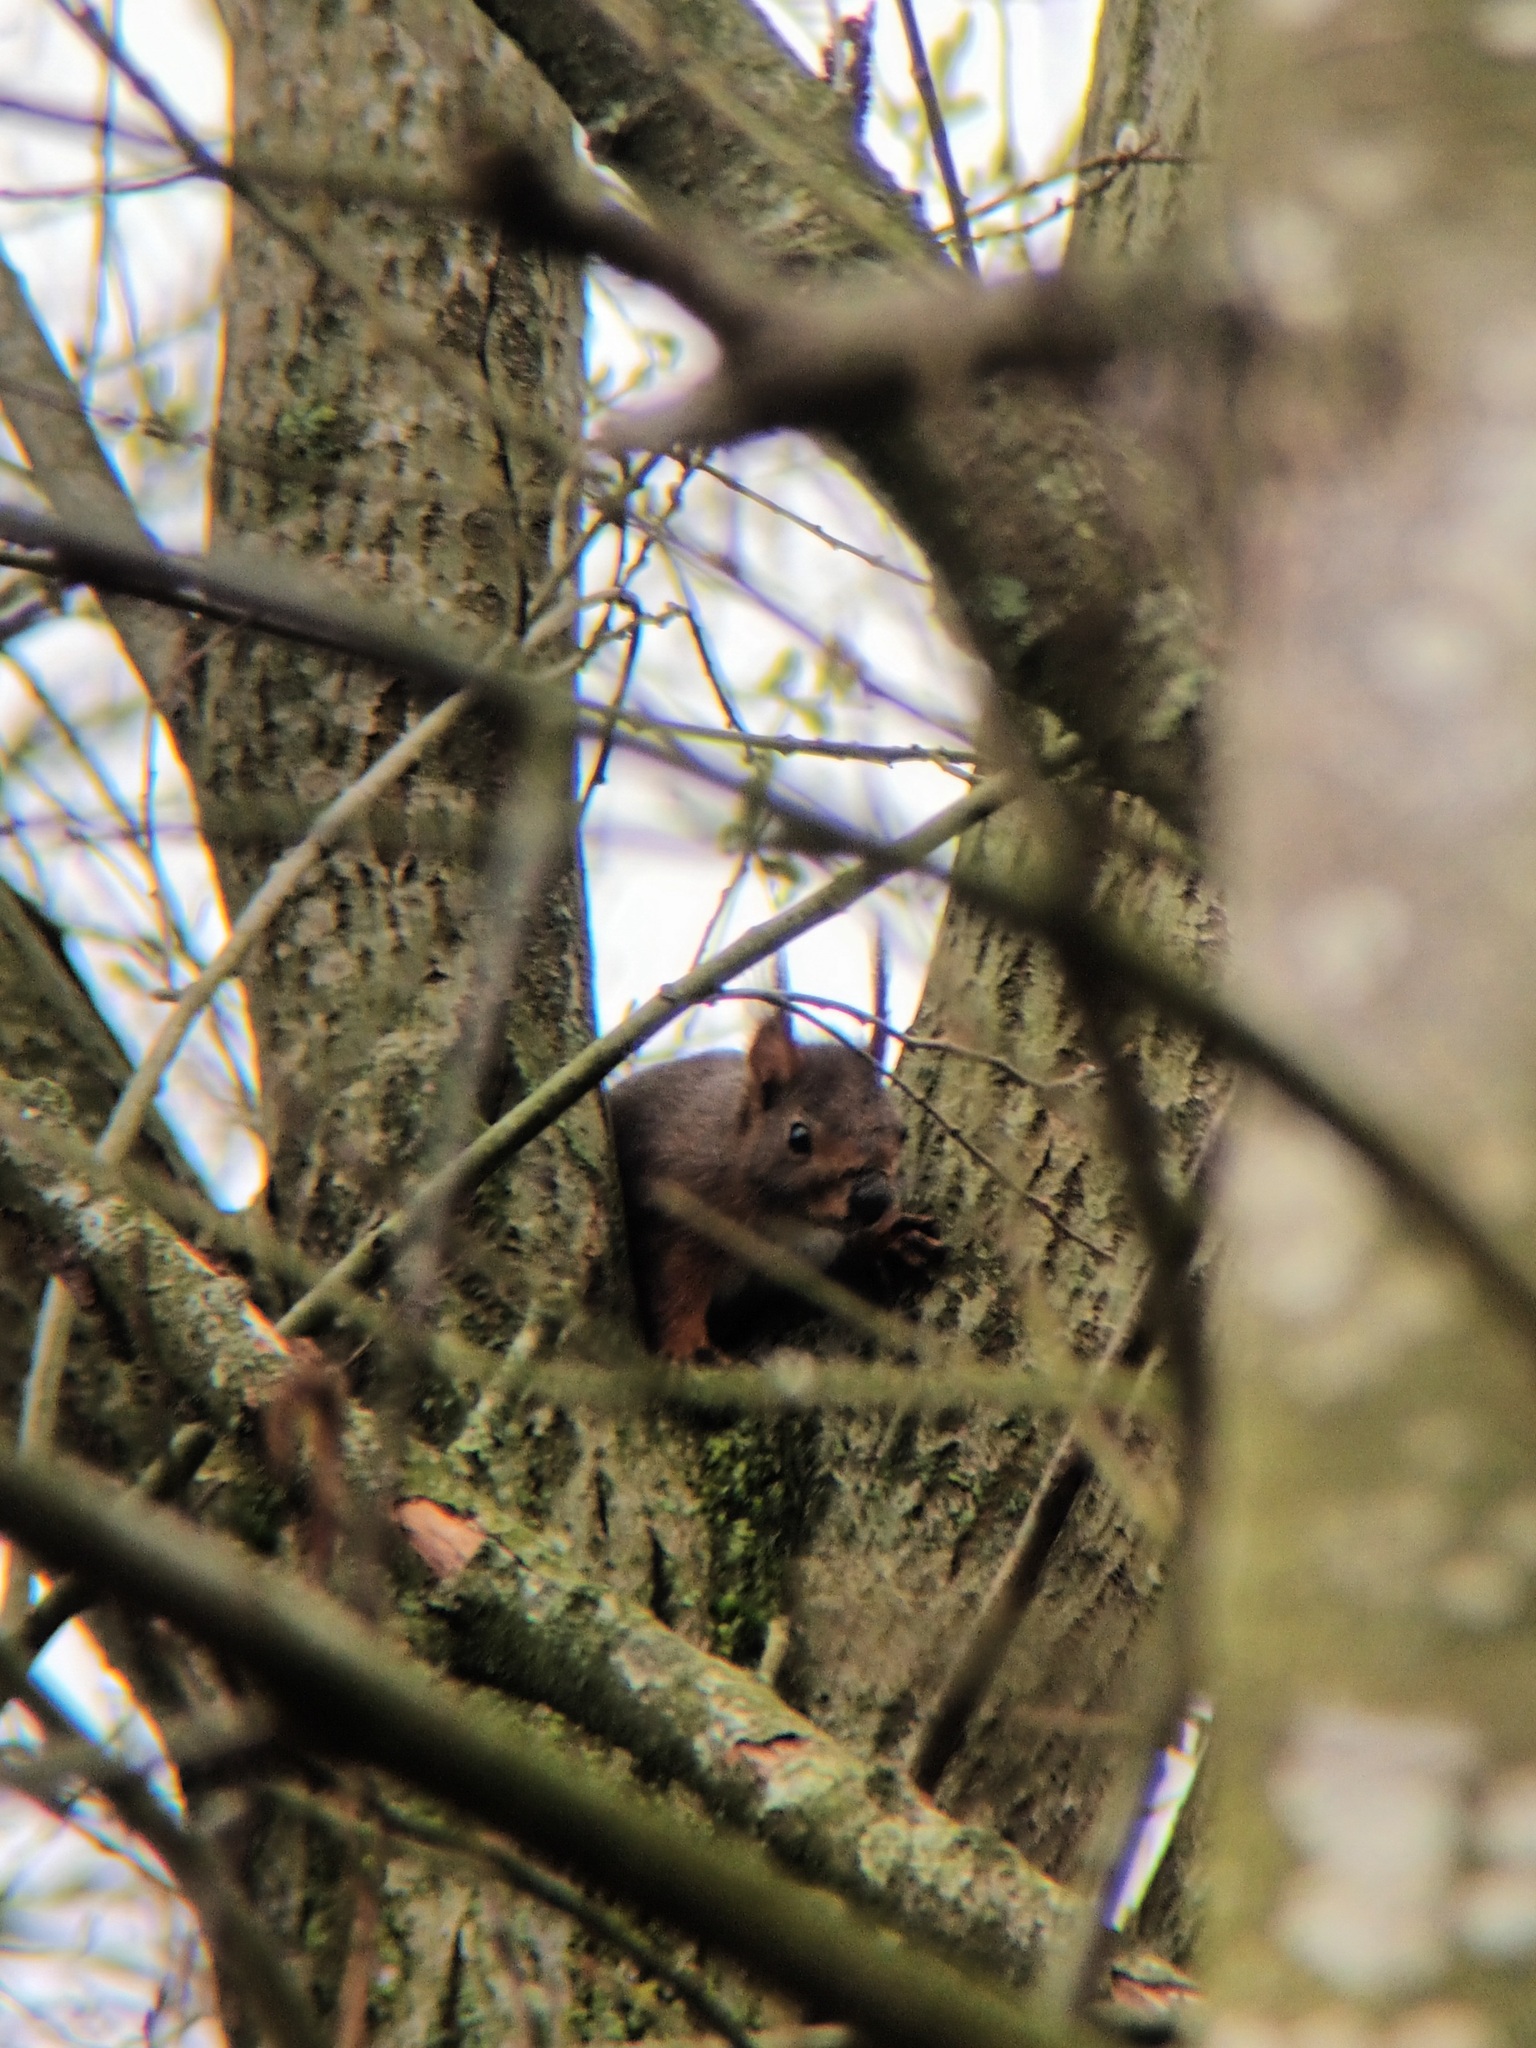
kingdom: Animalia
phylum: Chordata
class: Mammalia
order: Rodentia
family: Sciuridae
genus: Sciurus
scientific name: Sciurus vulgaris
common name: Eurasian red squirrel
